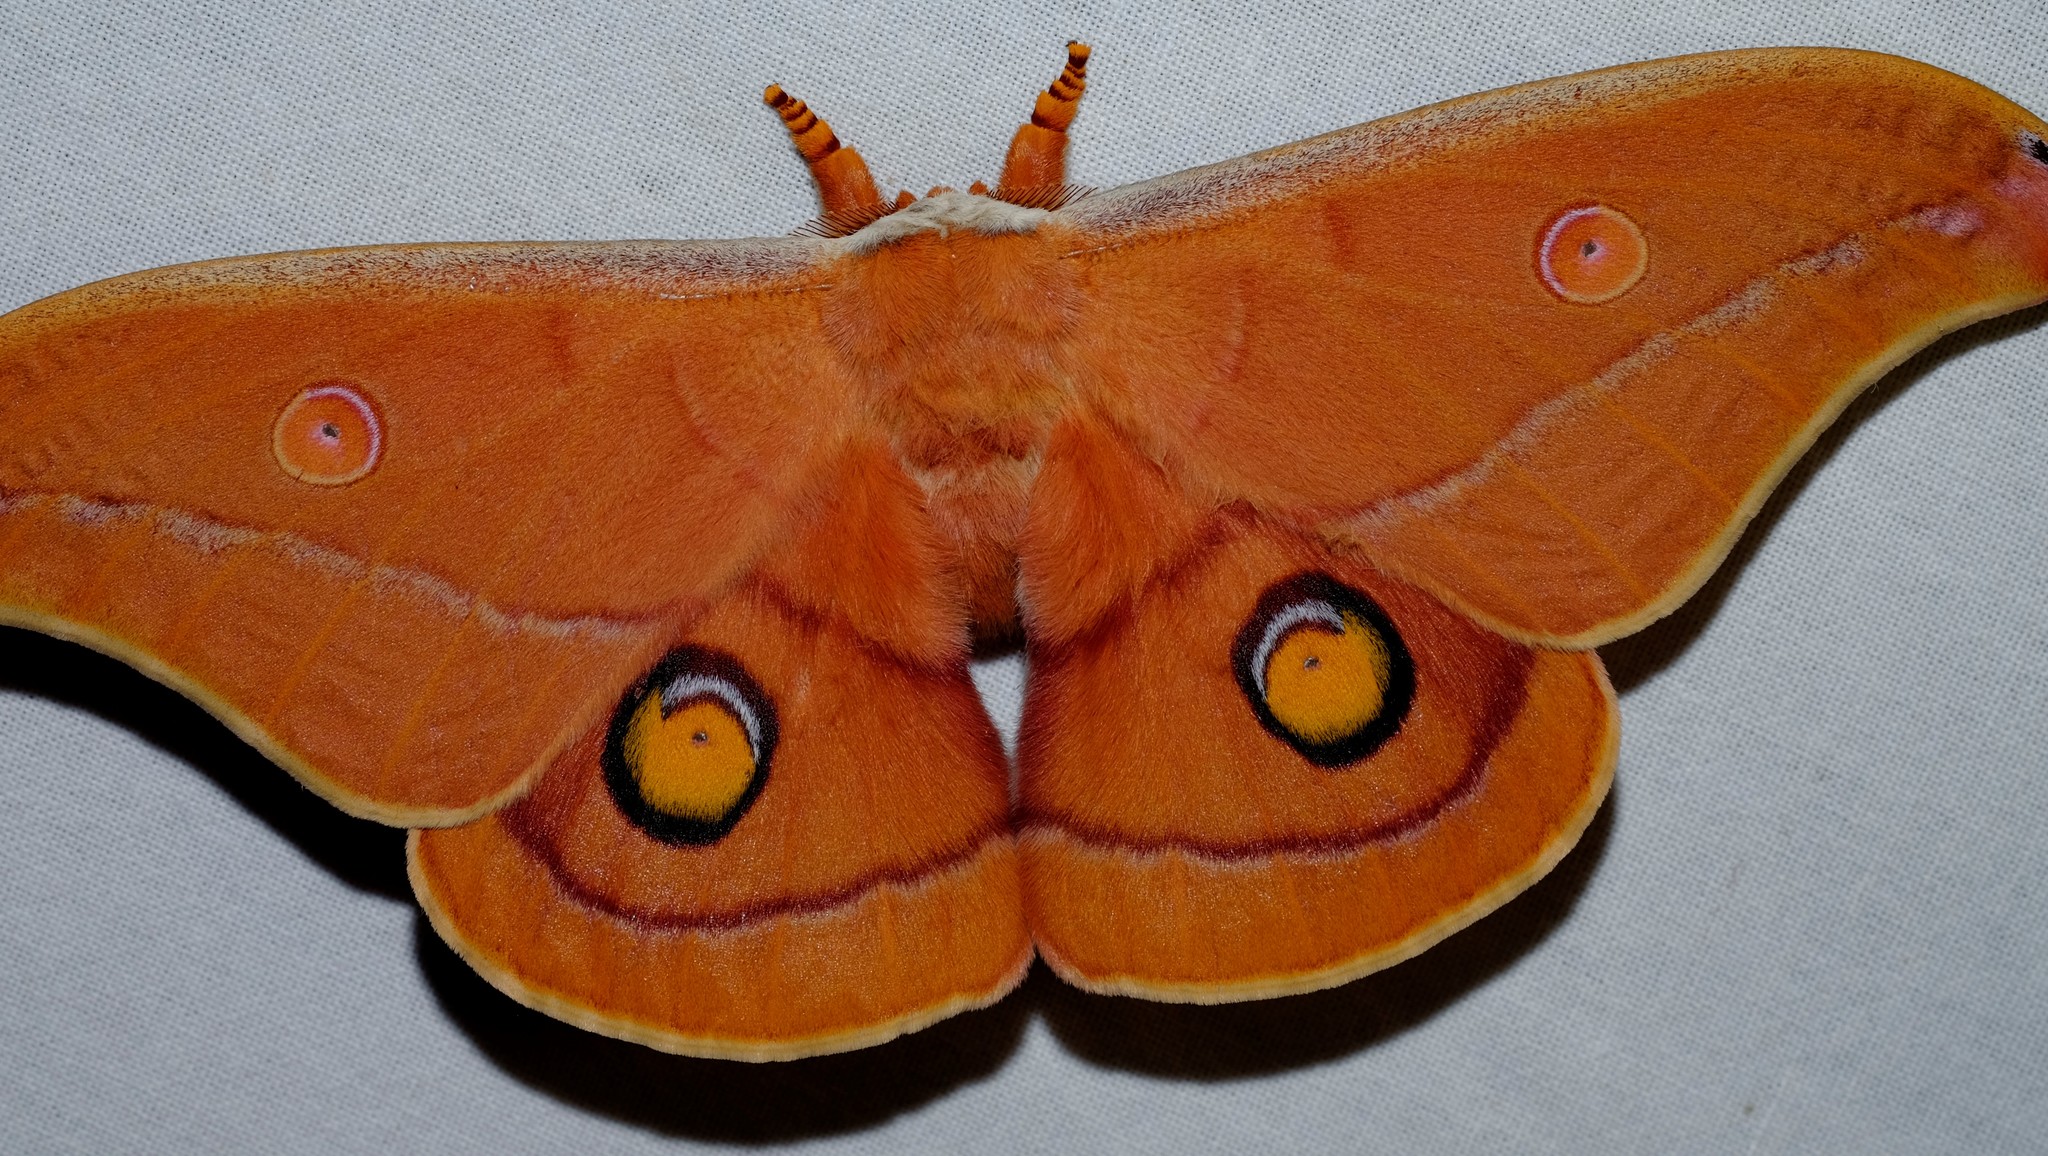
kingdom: Animalia
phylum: Arthropoda
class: Insecta
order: Lepidoptera
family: Saturniidae
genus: Opodiphthera
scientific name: Opodiphthera
